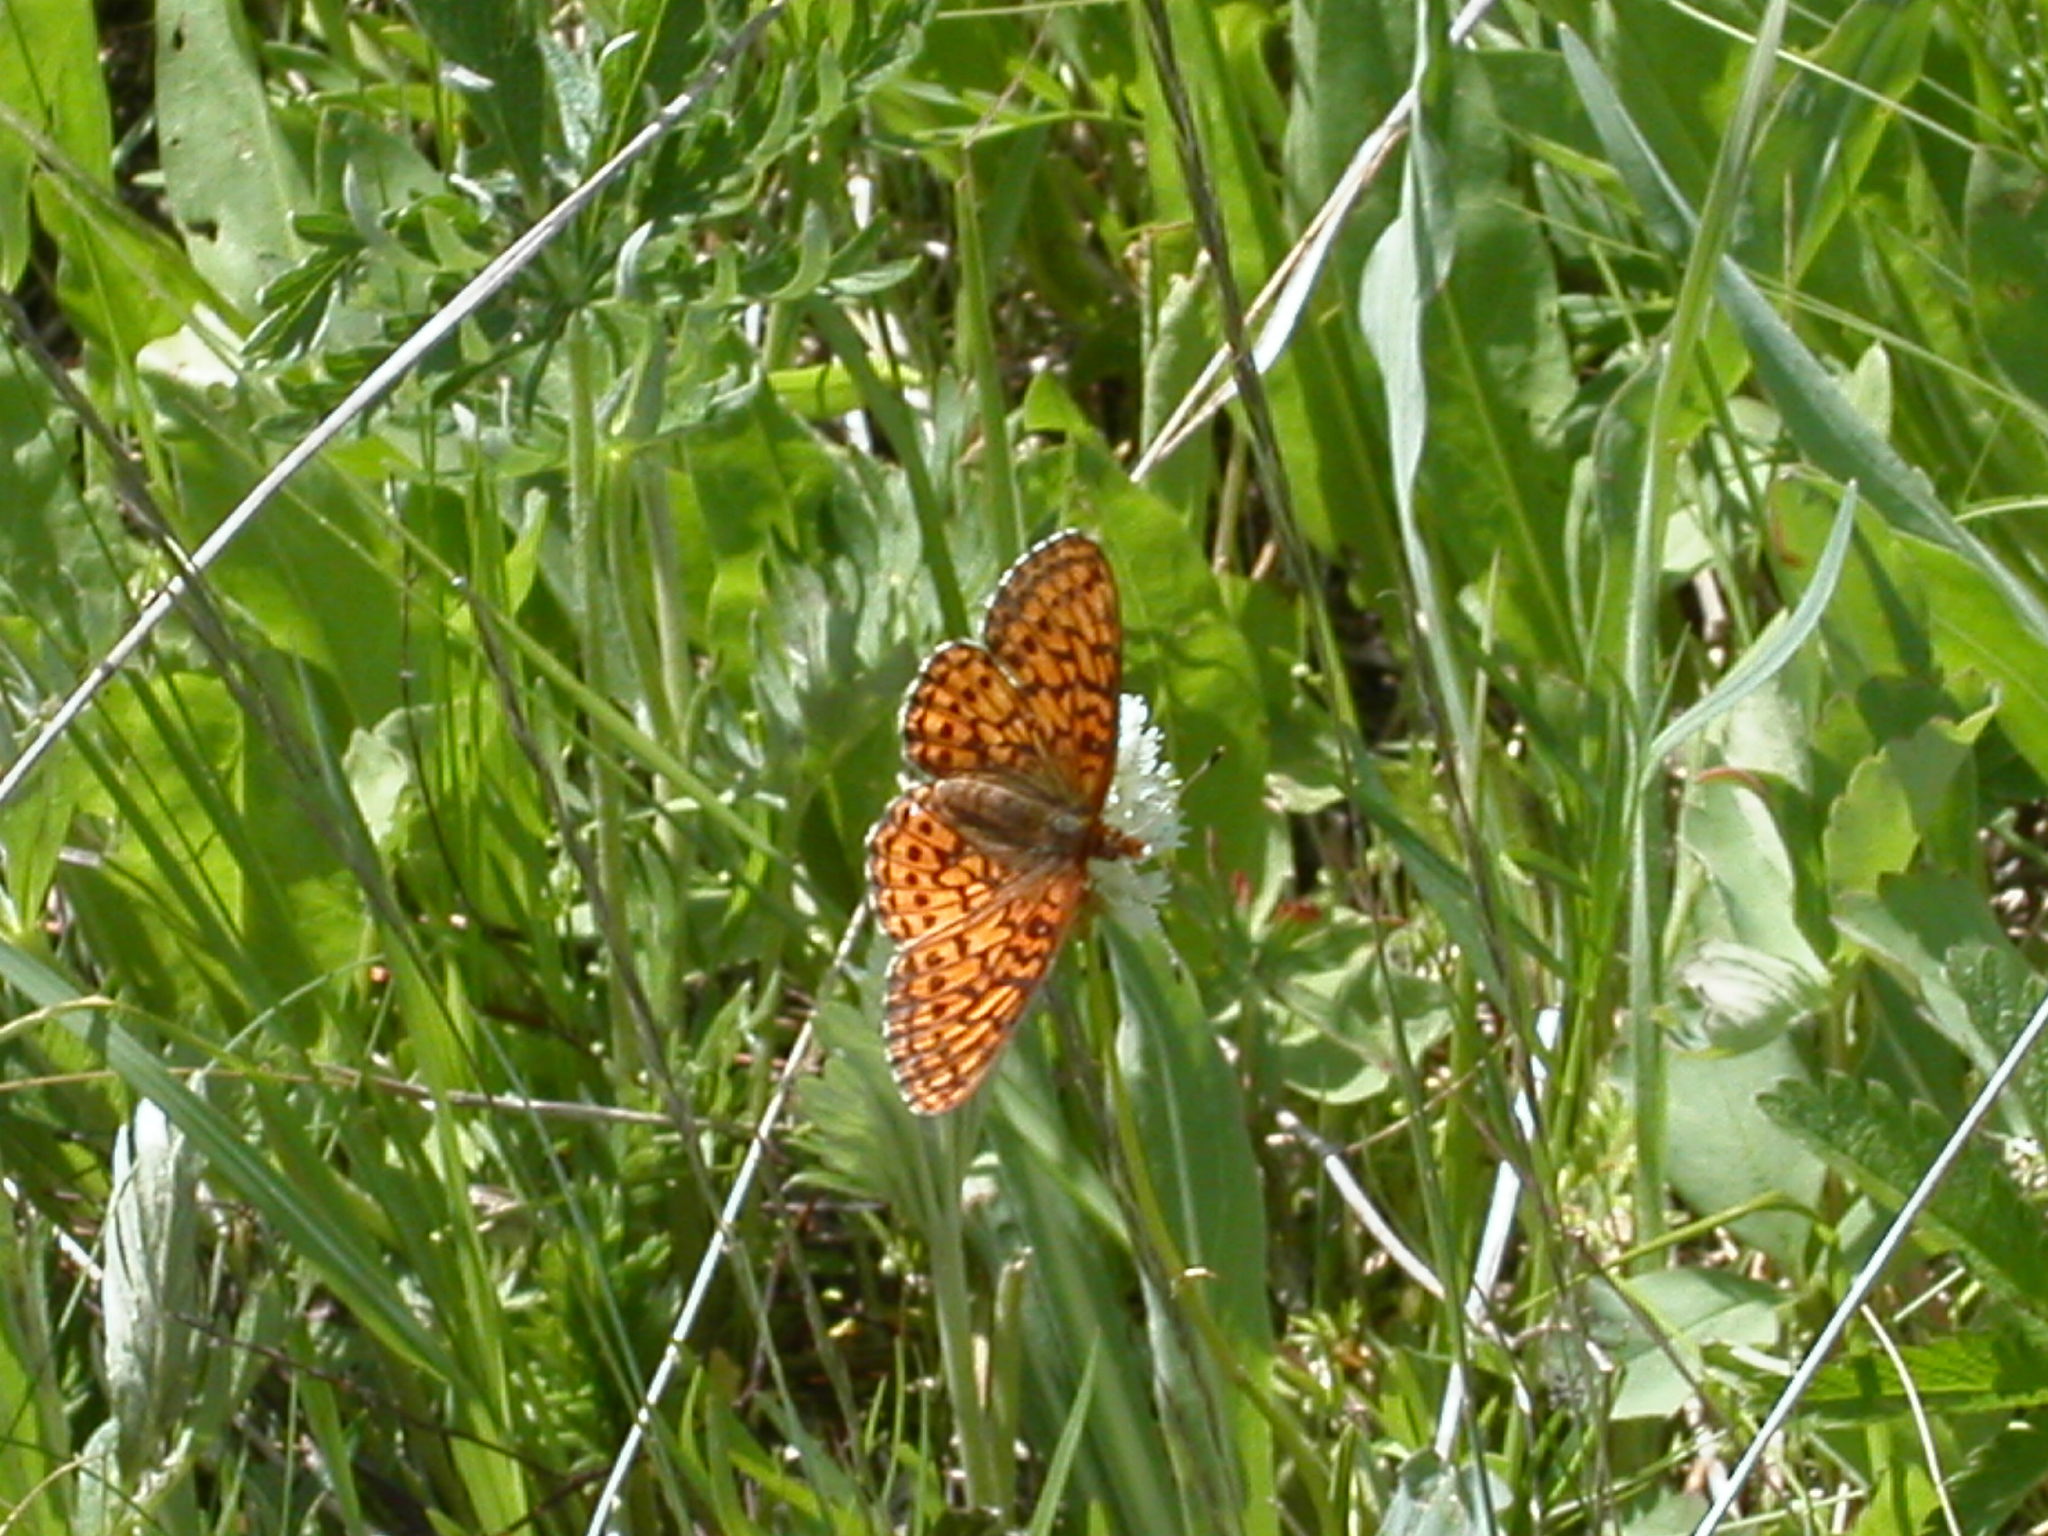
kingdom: Animalia
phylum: Arthropoda
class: Insecta
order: Lepidoptera
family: Nymphalidae
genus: Boloria
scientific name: Boloria kriemhild
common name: Relict fritillary
